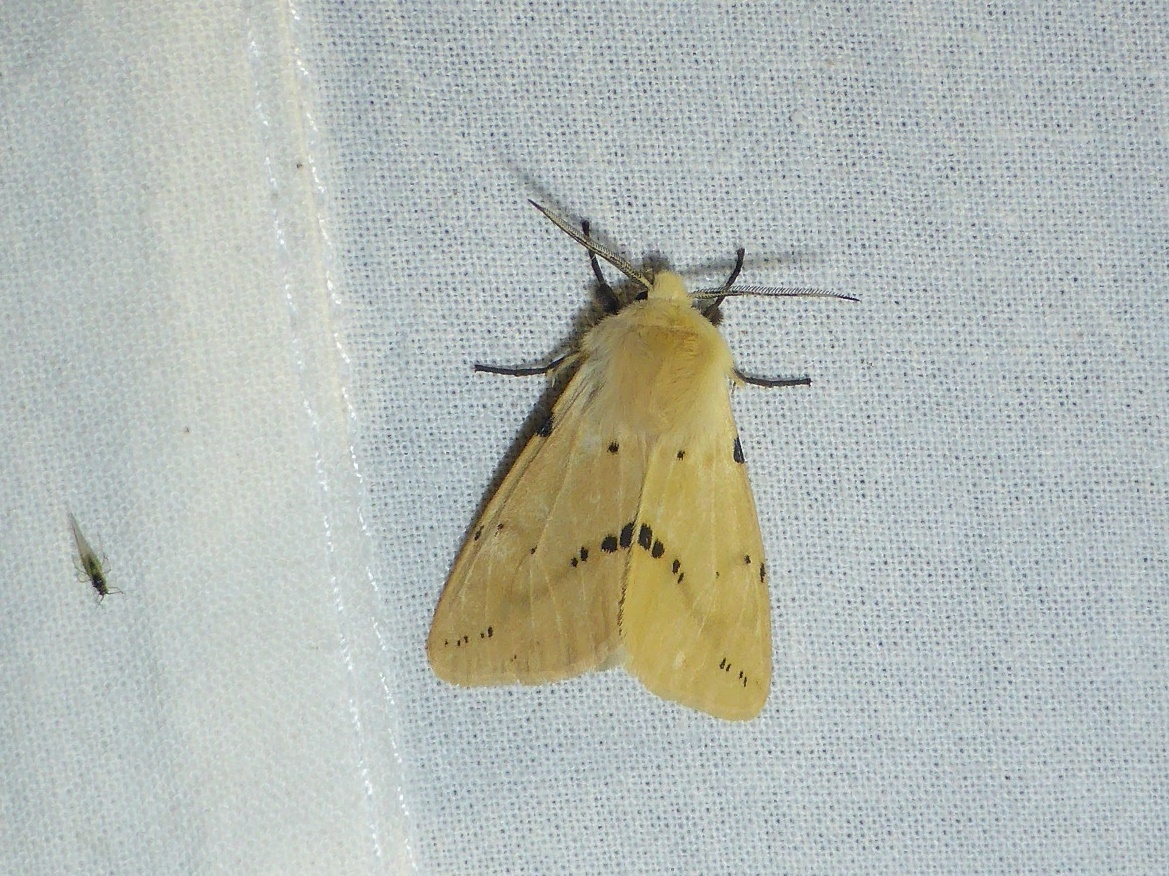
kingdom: Animalia
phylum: Arthropoda
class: Insecta
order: Lepidoptera
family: Erebidae
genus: Spilarctia
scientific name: Spilarctia lutea
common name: Buff ermine
